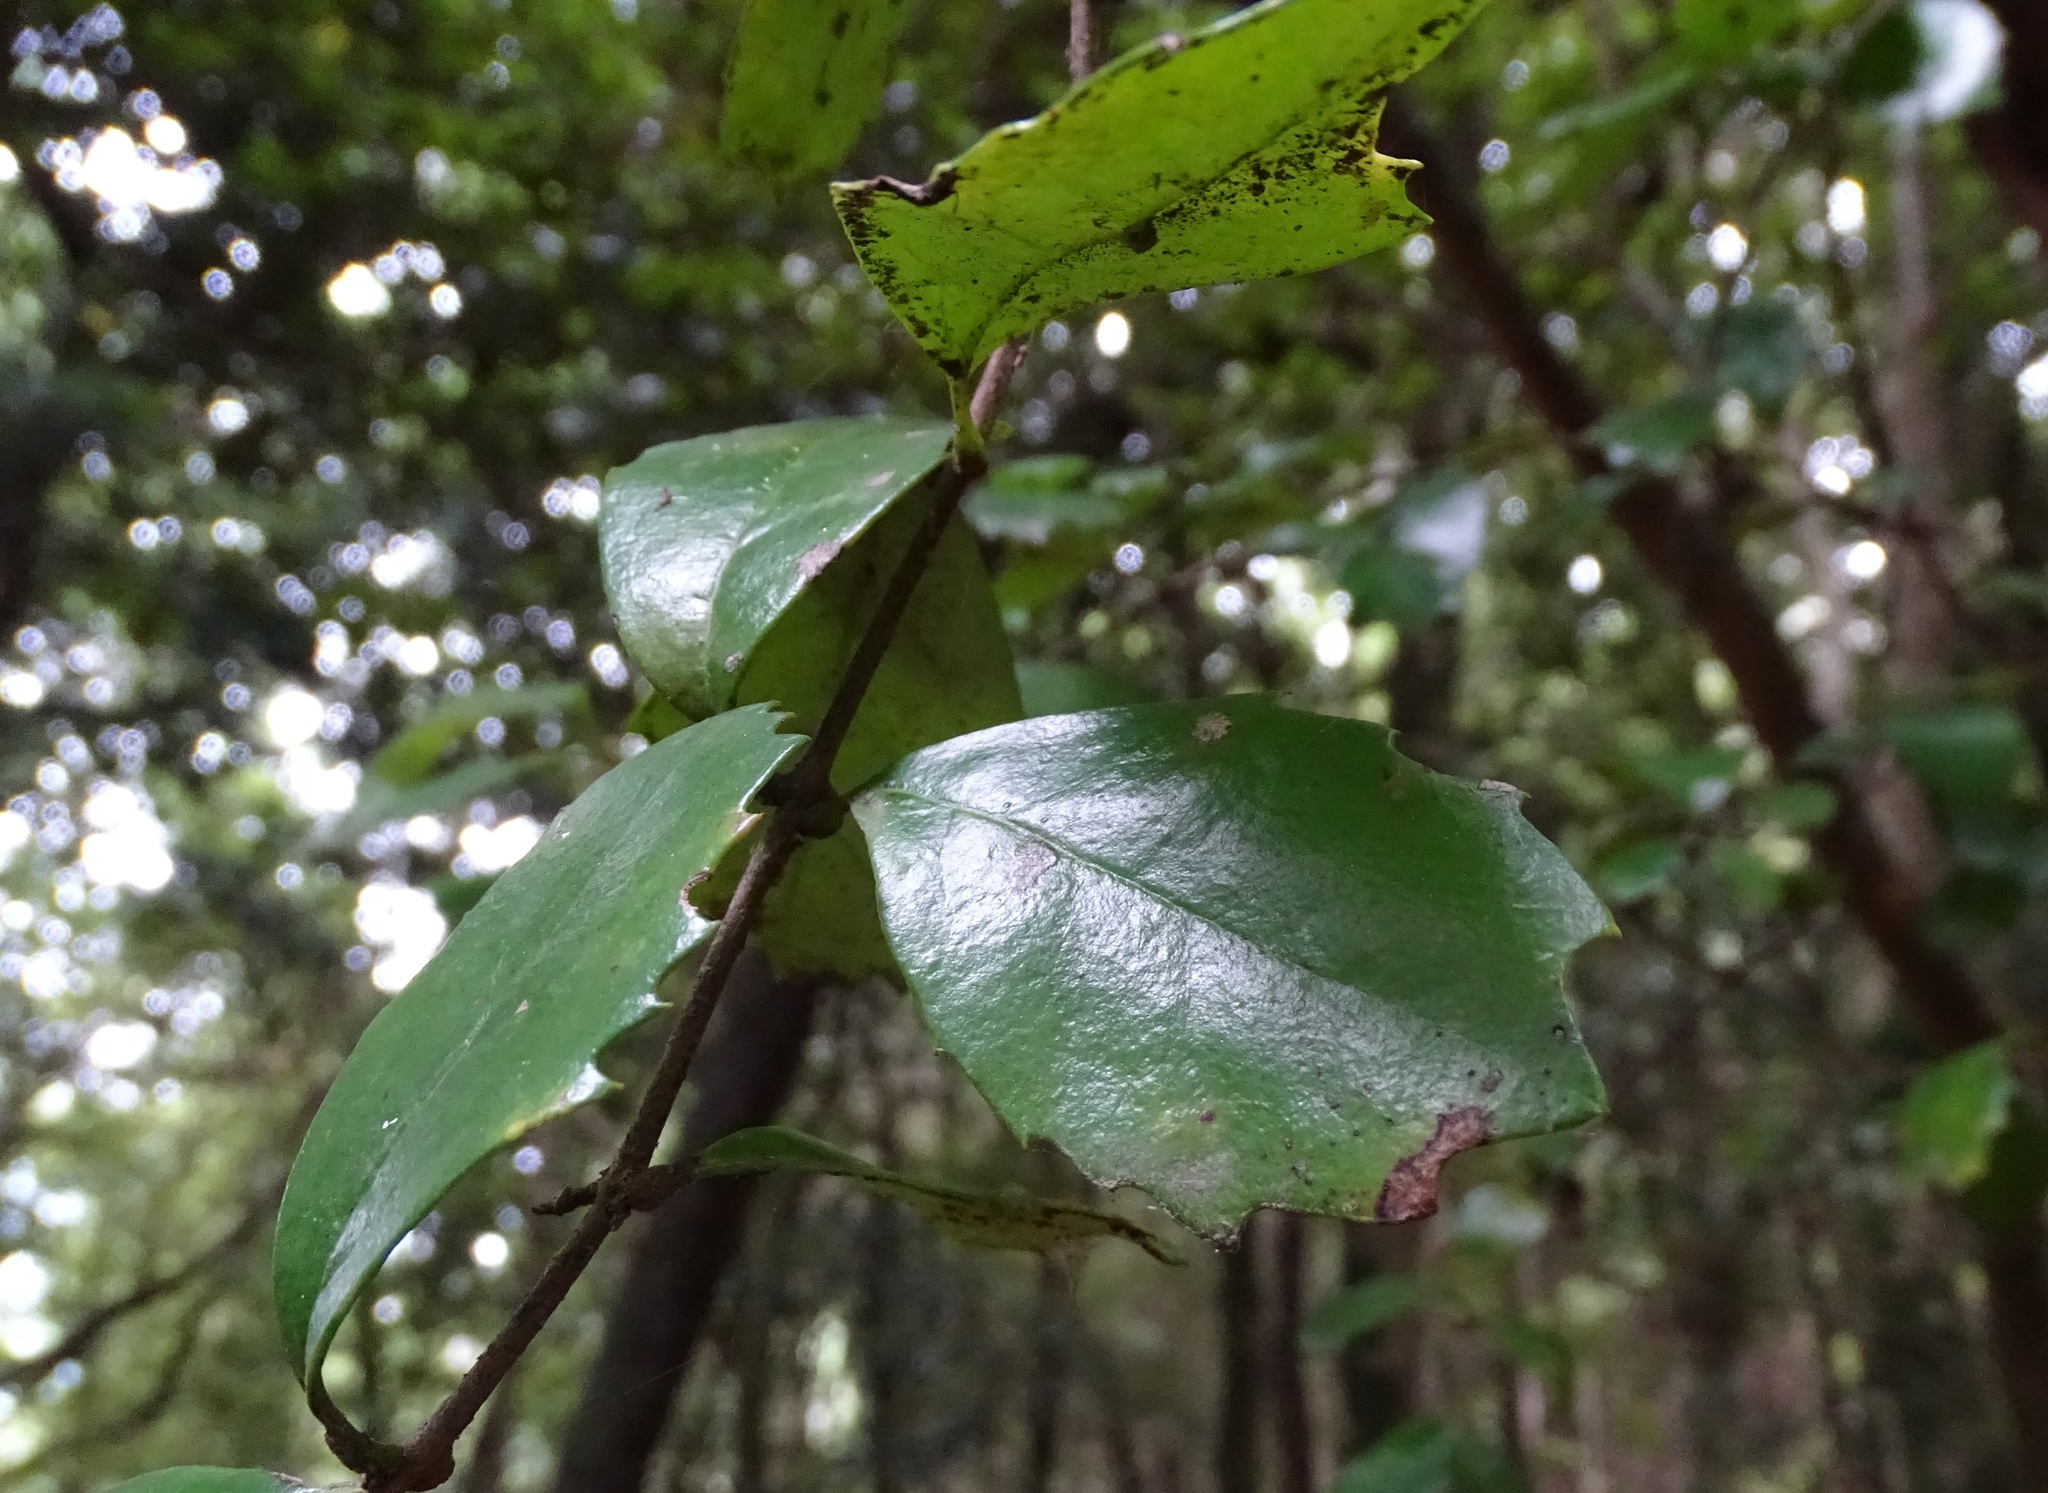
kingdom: Plantae
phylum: Tracheophyta
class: Magnoliopsida
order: Proteales
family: Proteaceae
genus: Lomatia
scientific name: Lomatia dentata
